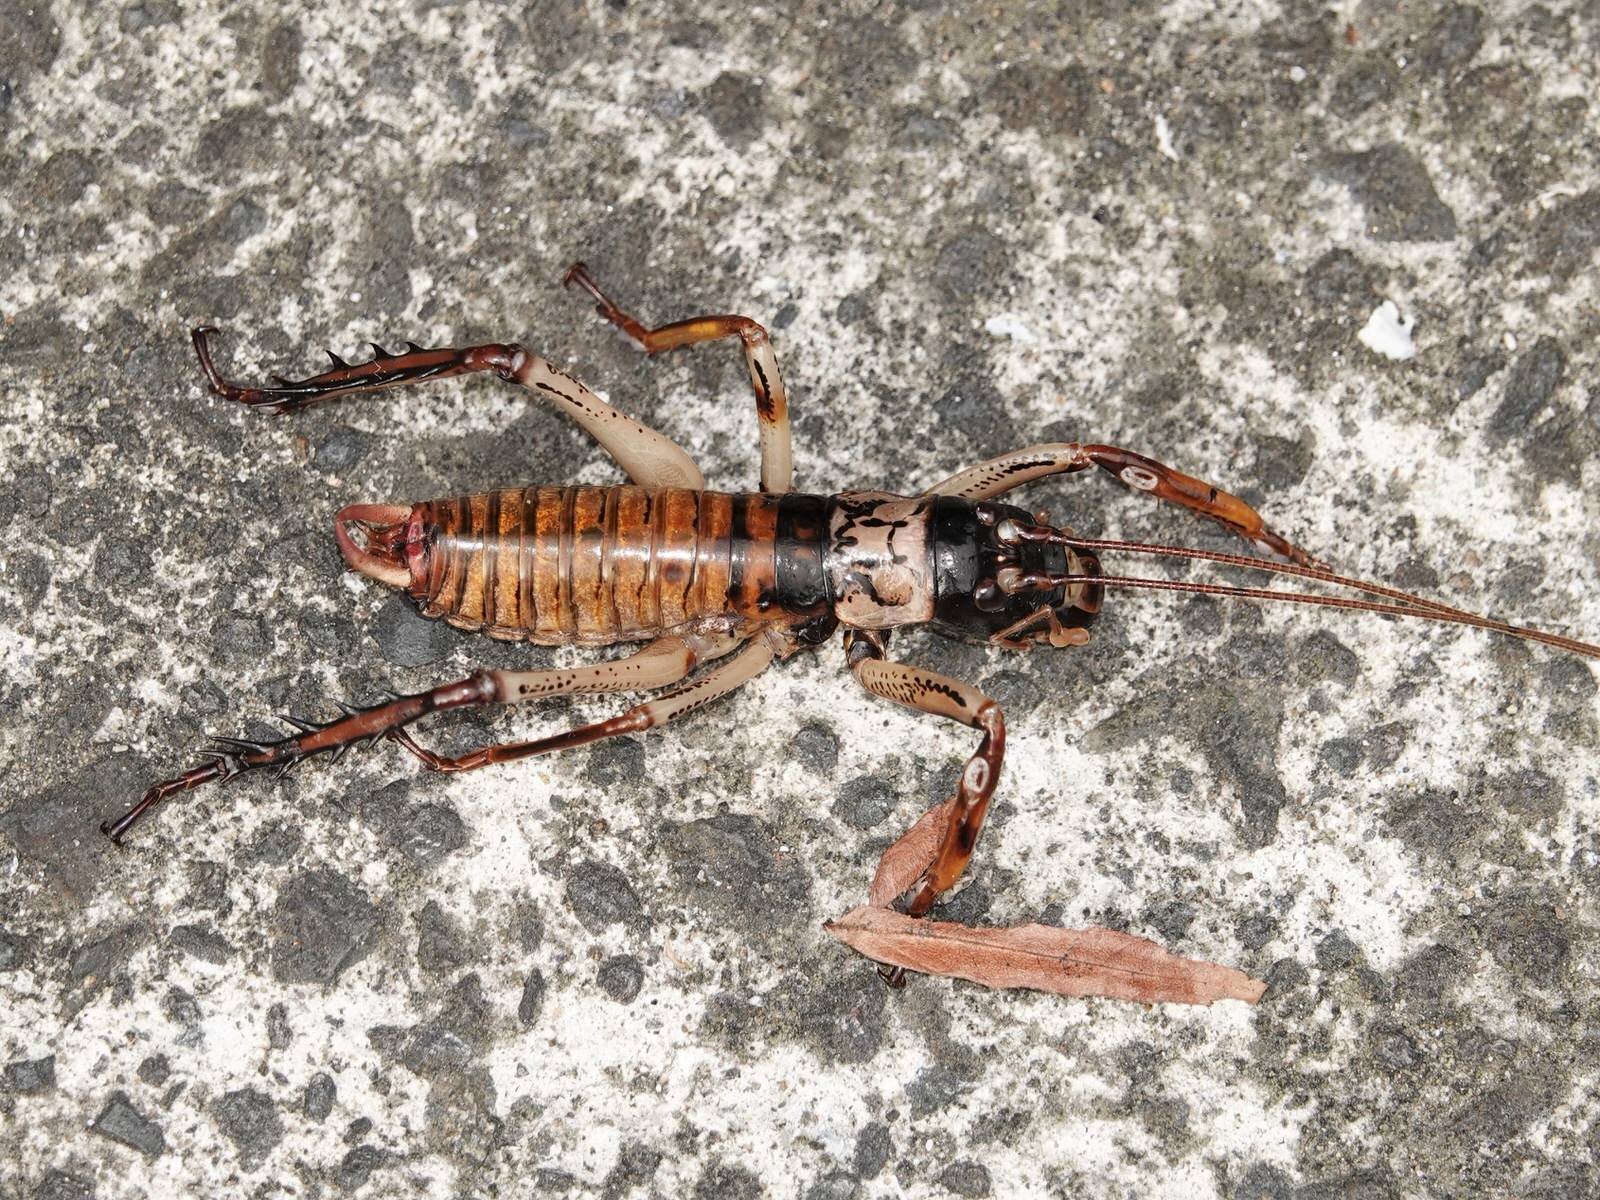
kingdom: Animalia
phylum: Arthropoda
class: Insecta
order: Orthoptera
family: Anostostomatidae
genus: Hemideina
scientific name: Hemideina thoracica
